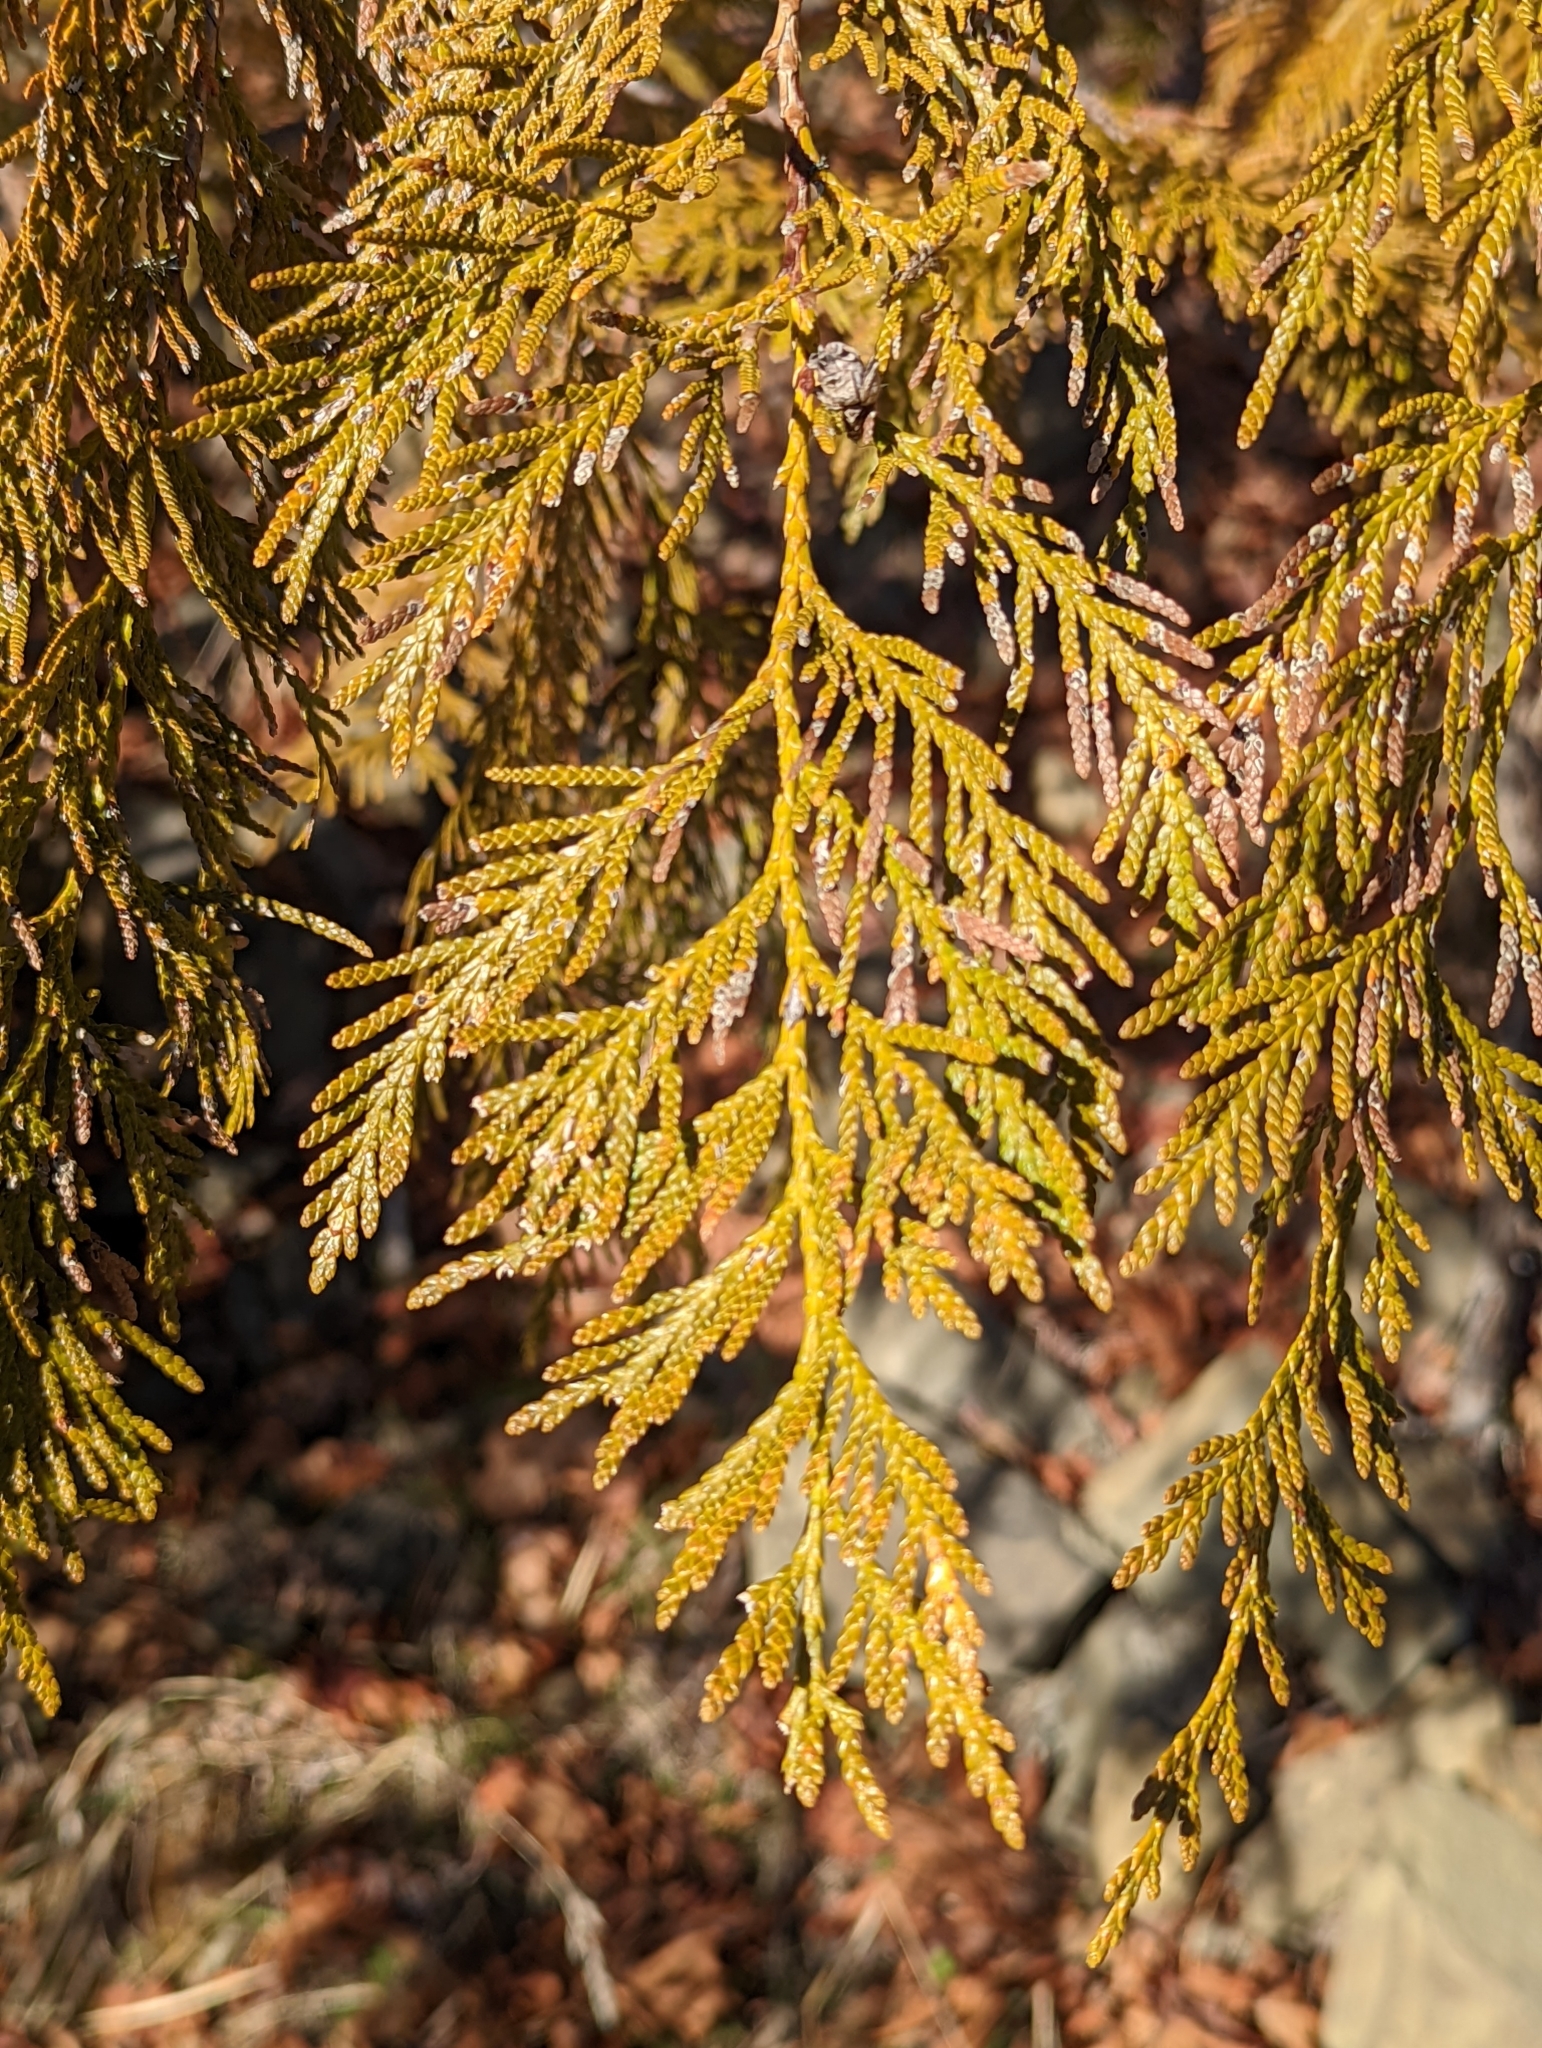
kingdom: Plantae
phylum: Tracheophyta
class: Pinopsida
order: Pinales
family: Cupressaceae
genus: Thuja
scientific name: Thuja plicata
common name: Western red-cedar
